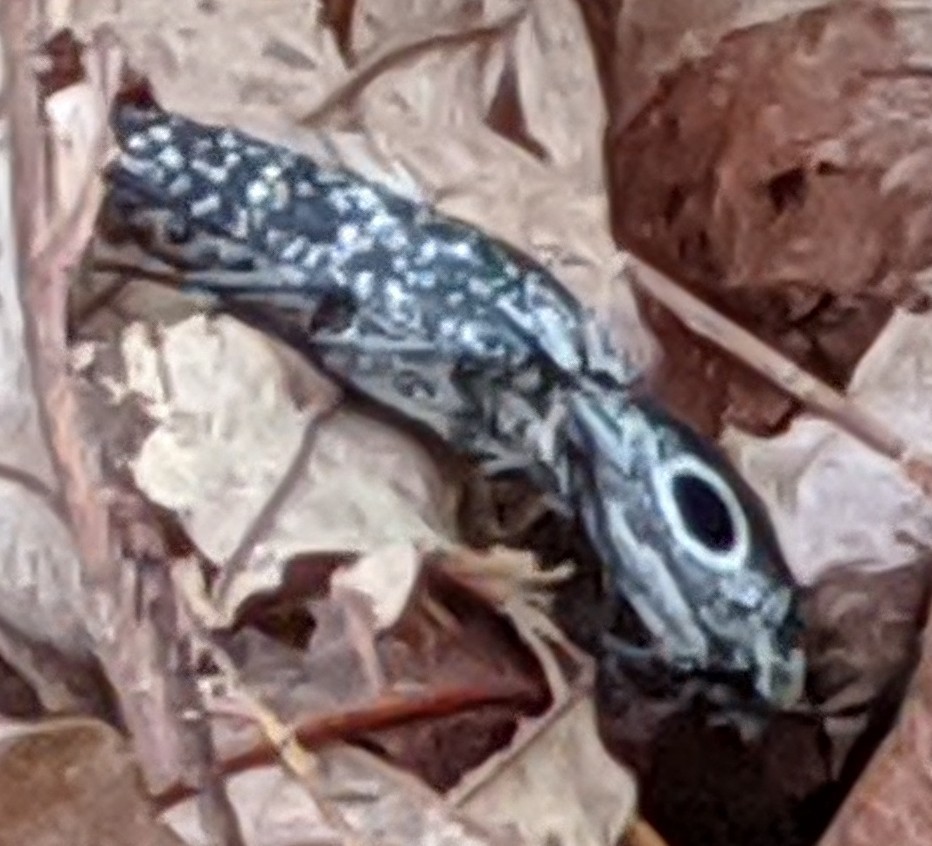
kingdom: Animalia
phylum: Arthropoda
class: Insecta
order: Coleoptera
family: Elateridae
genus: Alaus
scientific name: Alaus oculatus
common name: Eastern eyed click beetle
